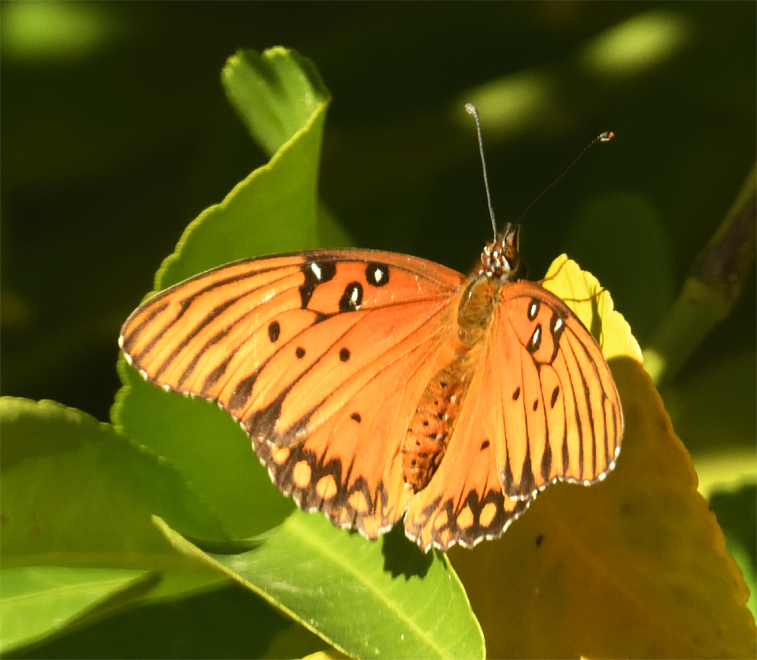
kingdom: Animalia
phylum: Arthropoda
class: Insecta
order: Lepidoptera
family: Nymphalidae
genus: Dione
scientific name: Dione vanillae
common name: Gulf fritillary
